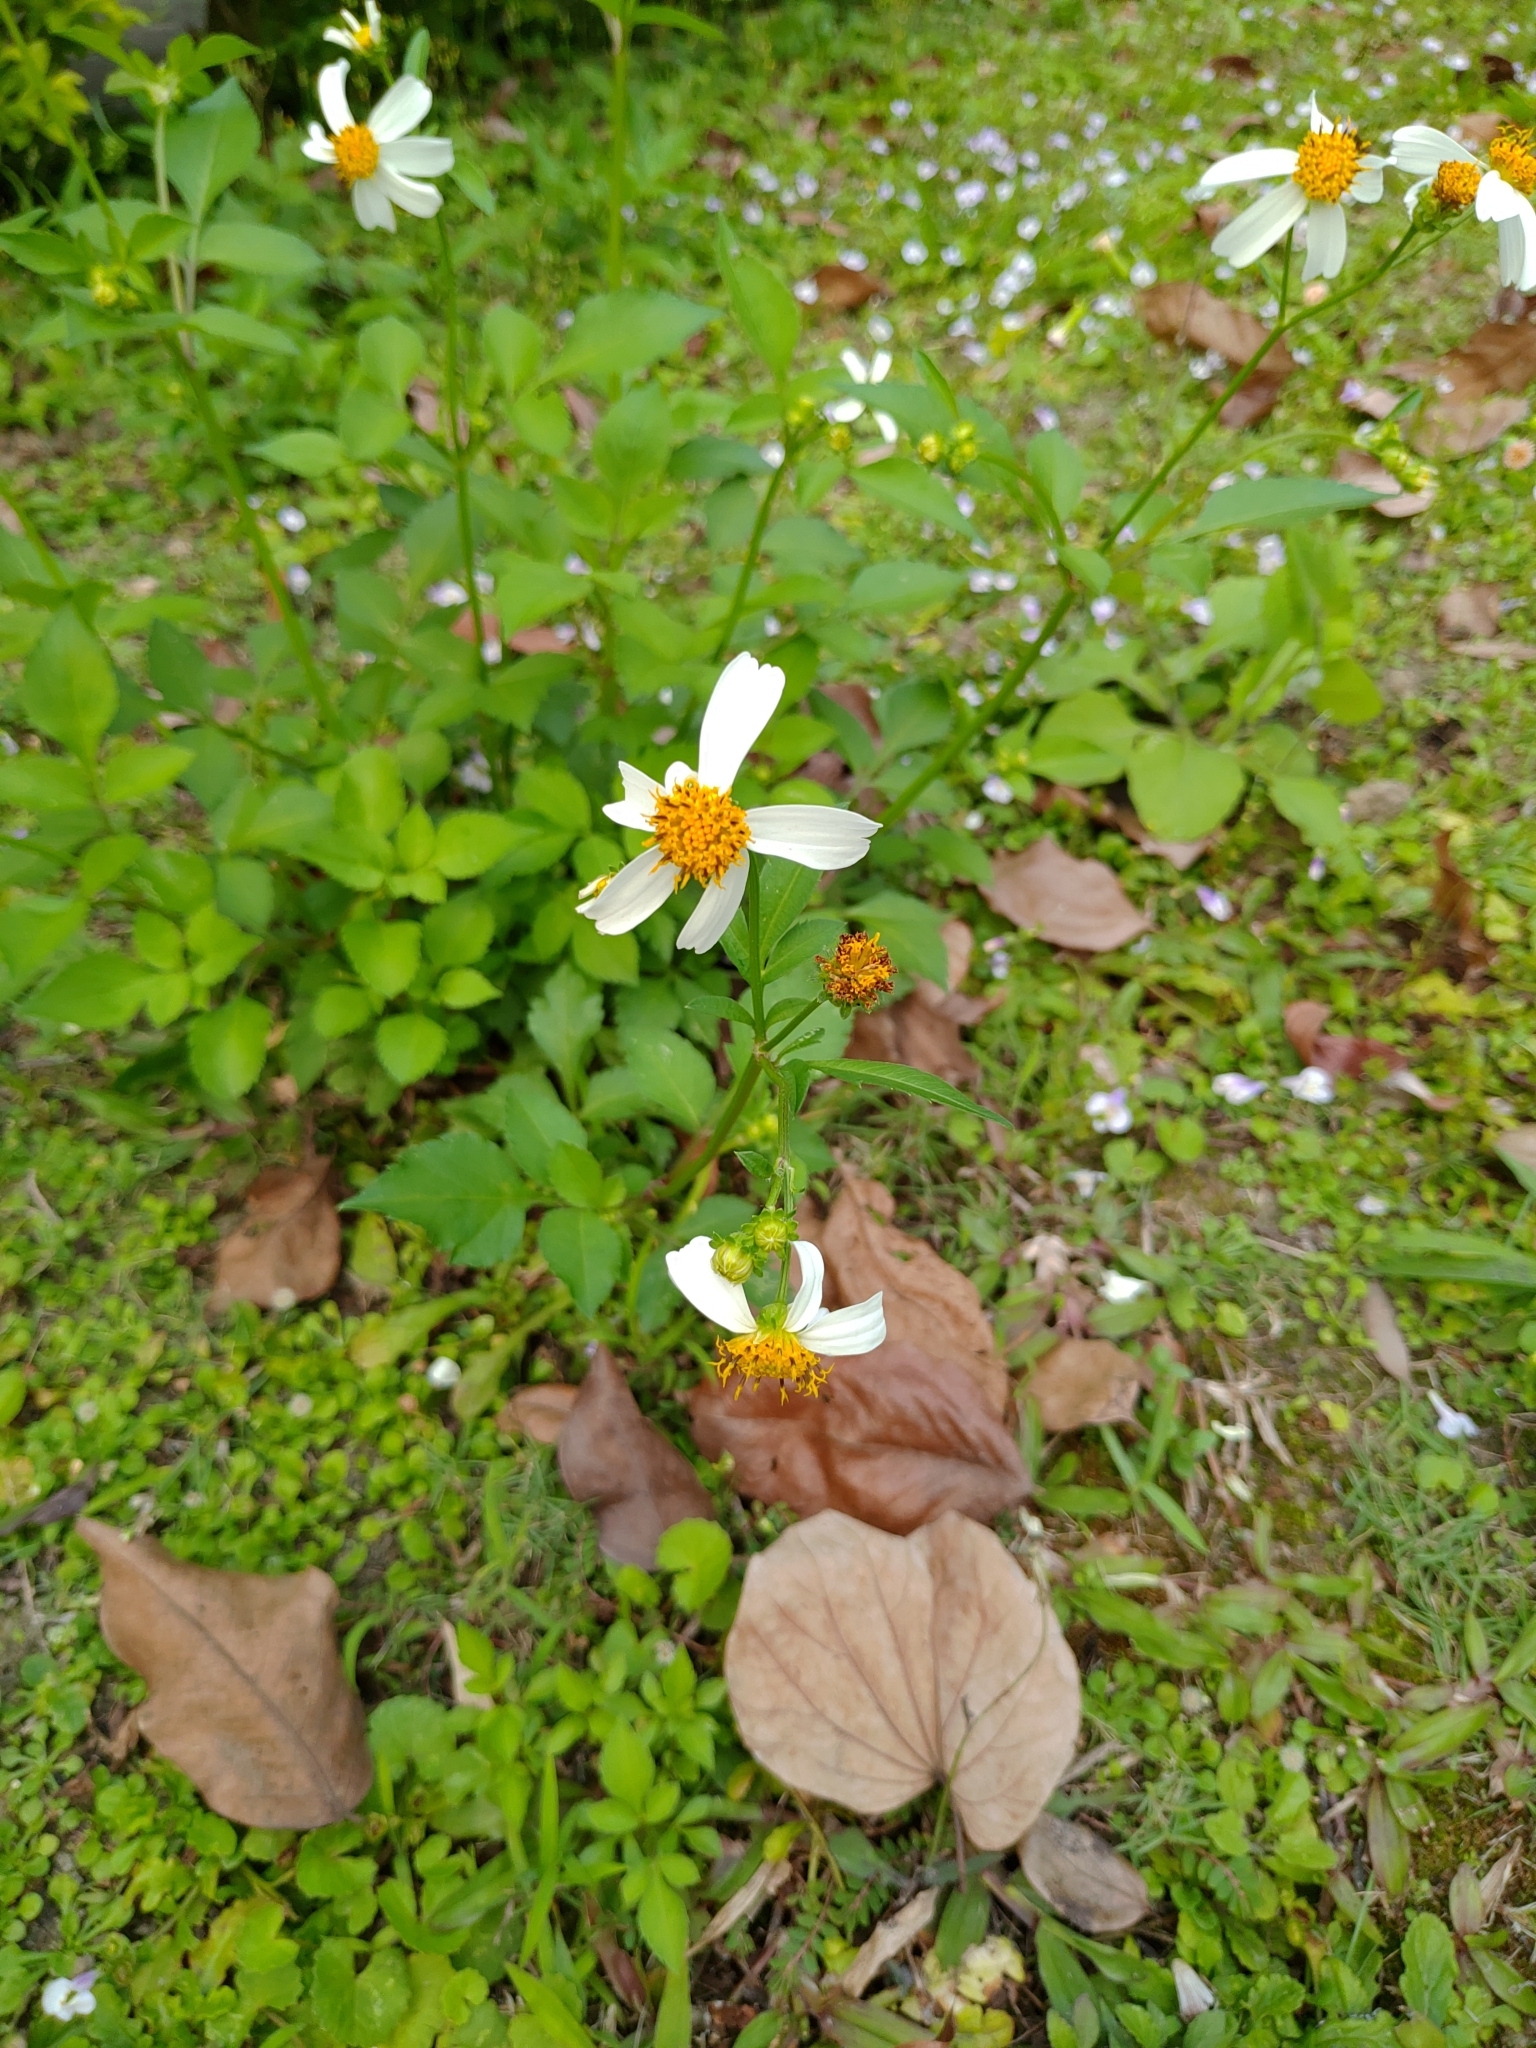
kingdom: Plantae
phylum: Tracheophyta
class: Magnoliopsida
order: Asterales
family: Asteraceae
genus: Bidens
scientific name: Bidens alba
